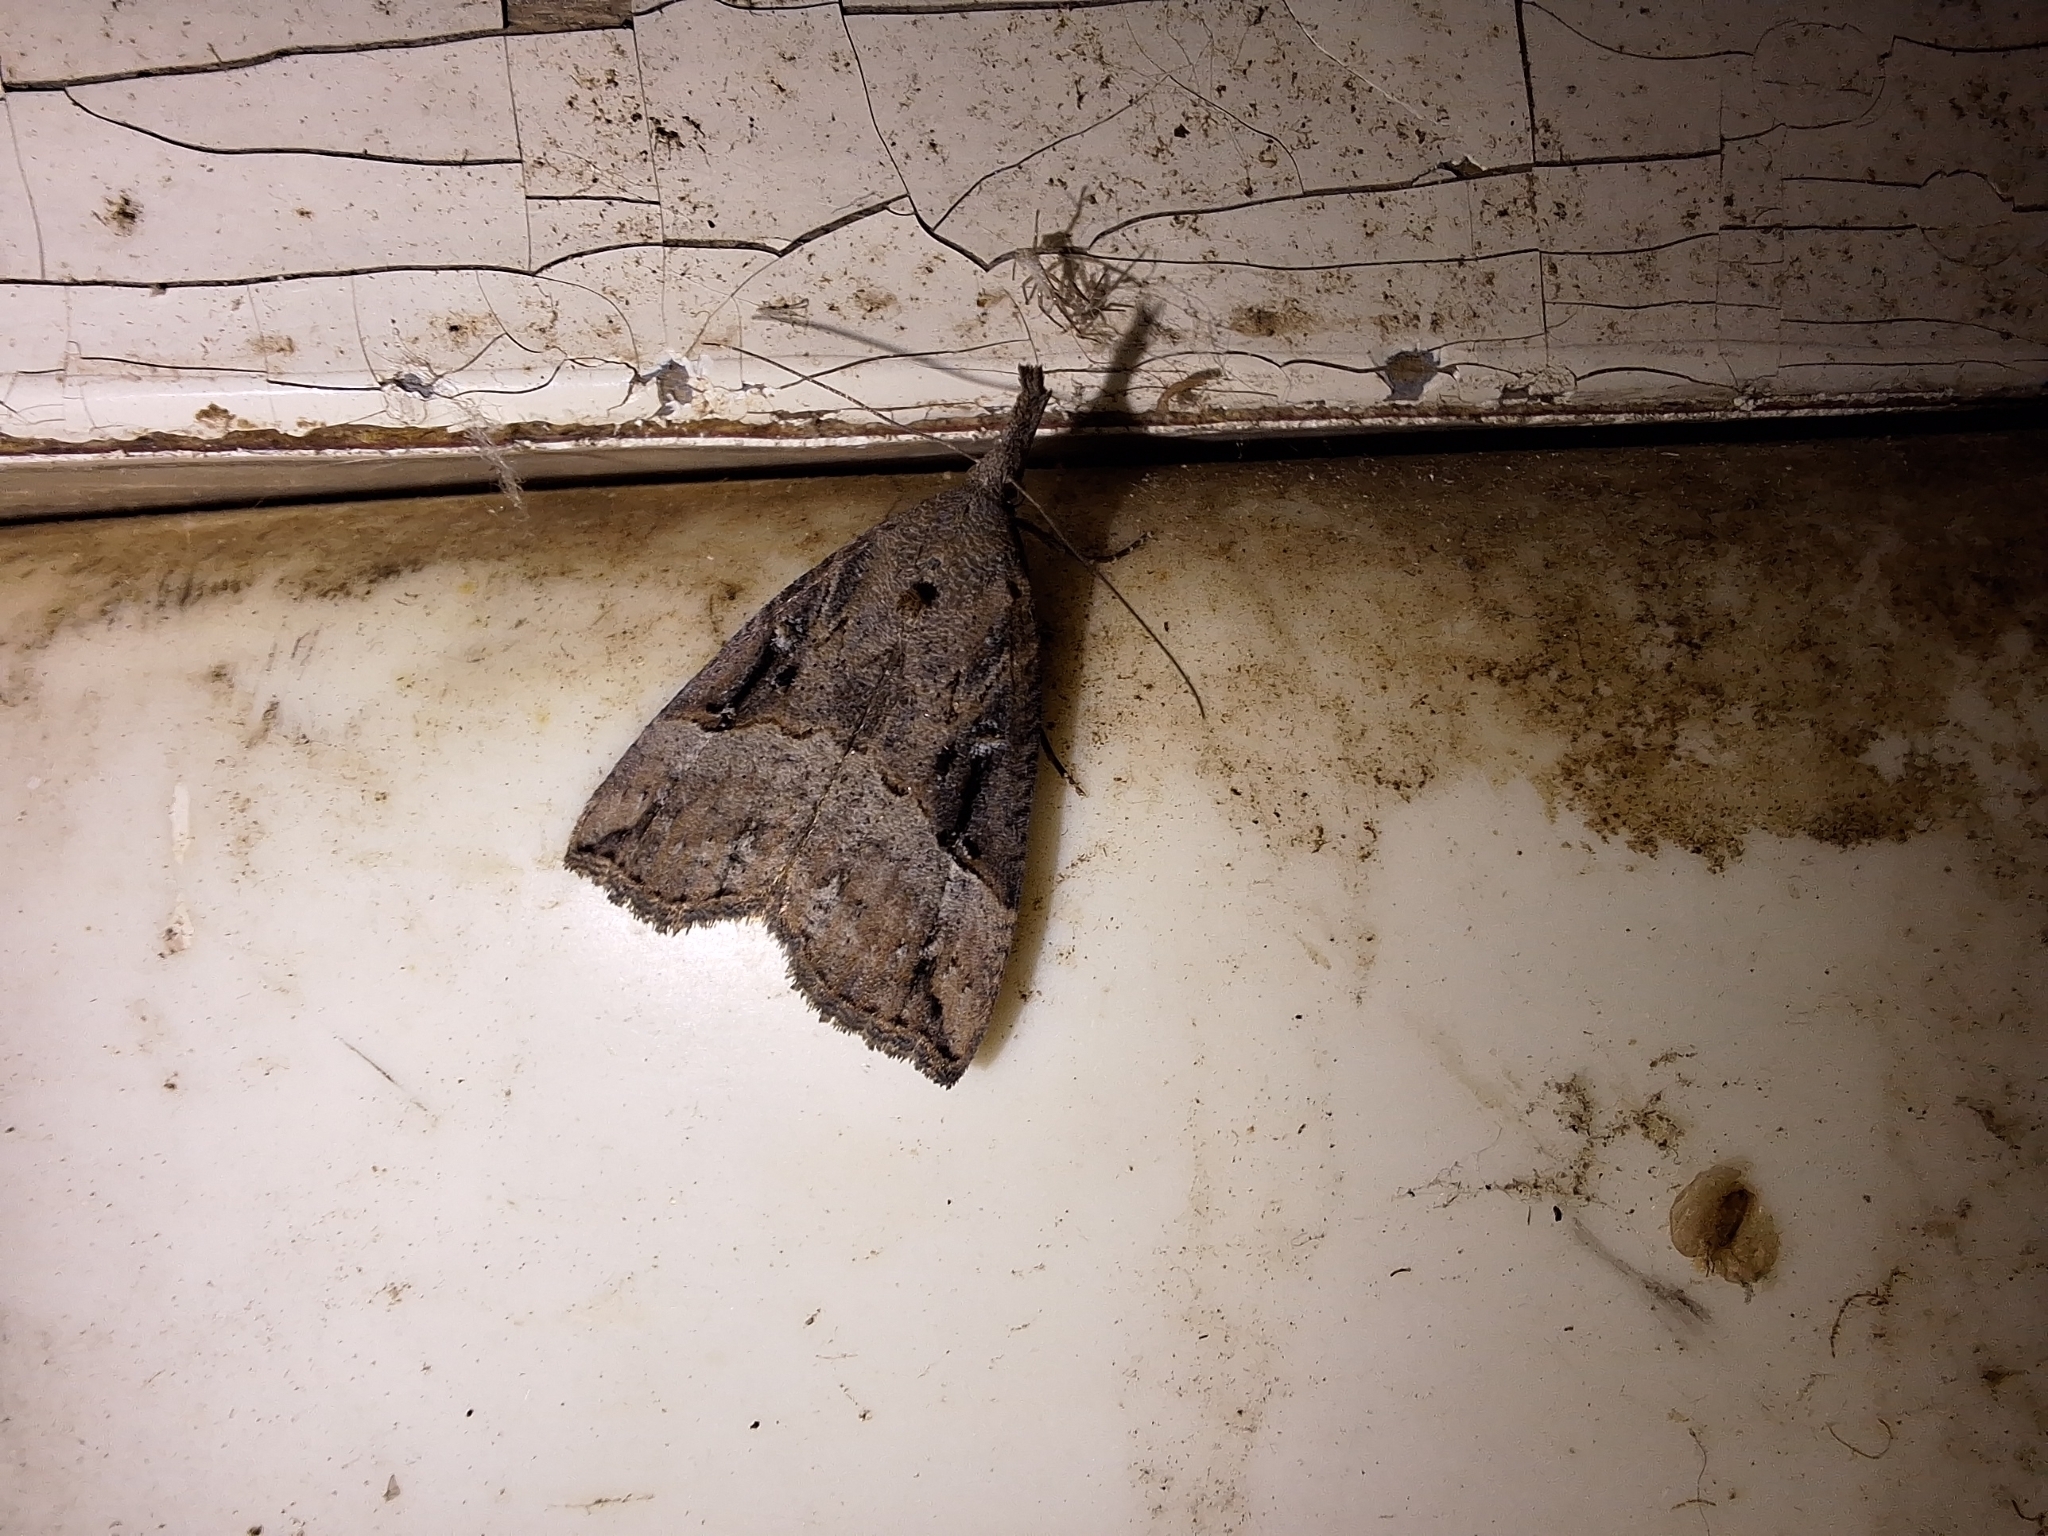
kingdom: Animalia
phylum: Arthropoda
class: Insecta
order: Lepidoptera
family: Erebidae
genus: Hypena
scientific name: Hypena rostralis
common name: Buttoned snout
